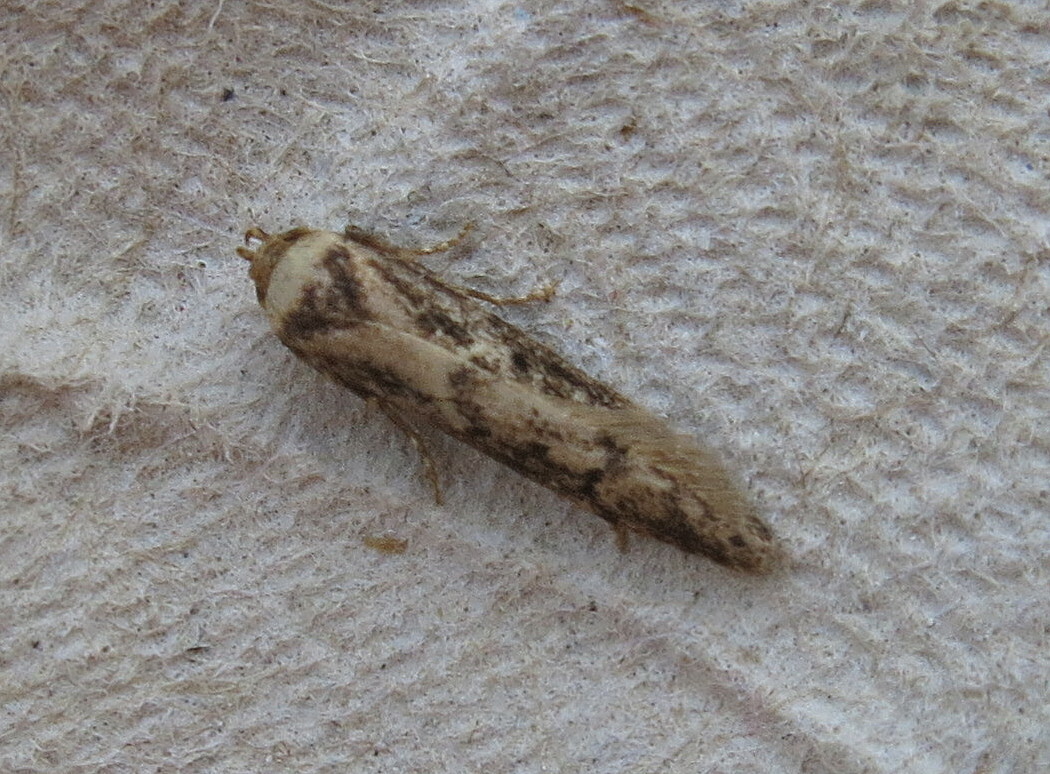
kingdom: Animalia
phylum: Arthropoda
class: Insecta
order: Lepidoptera
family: Blastobasidae
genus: Blastobasis
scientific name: Blastobasis adustella
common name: Dingy dowd
